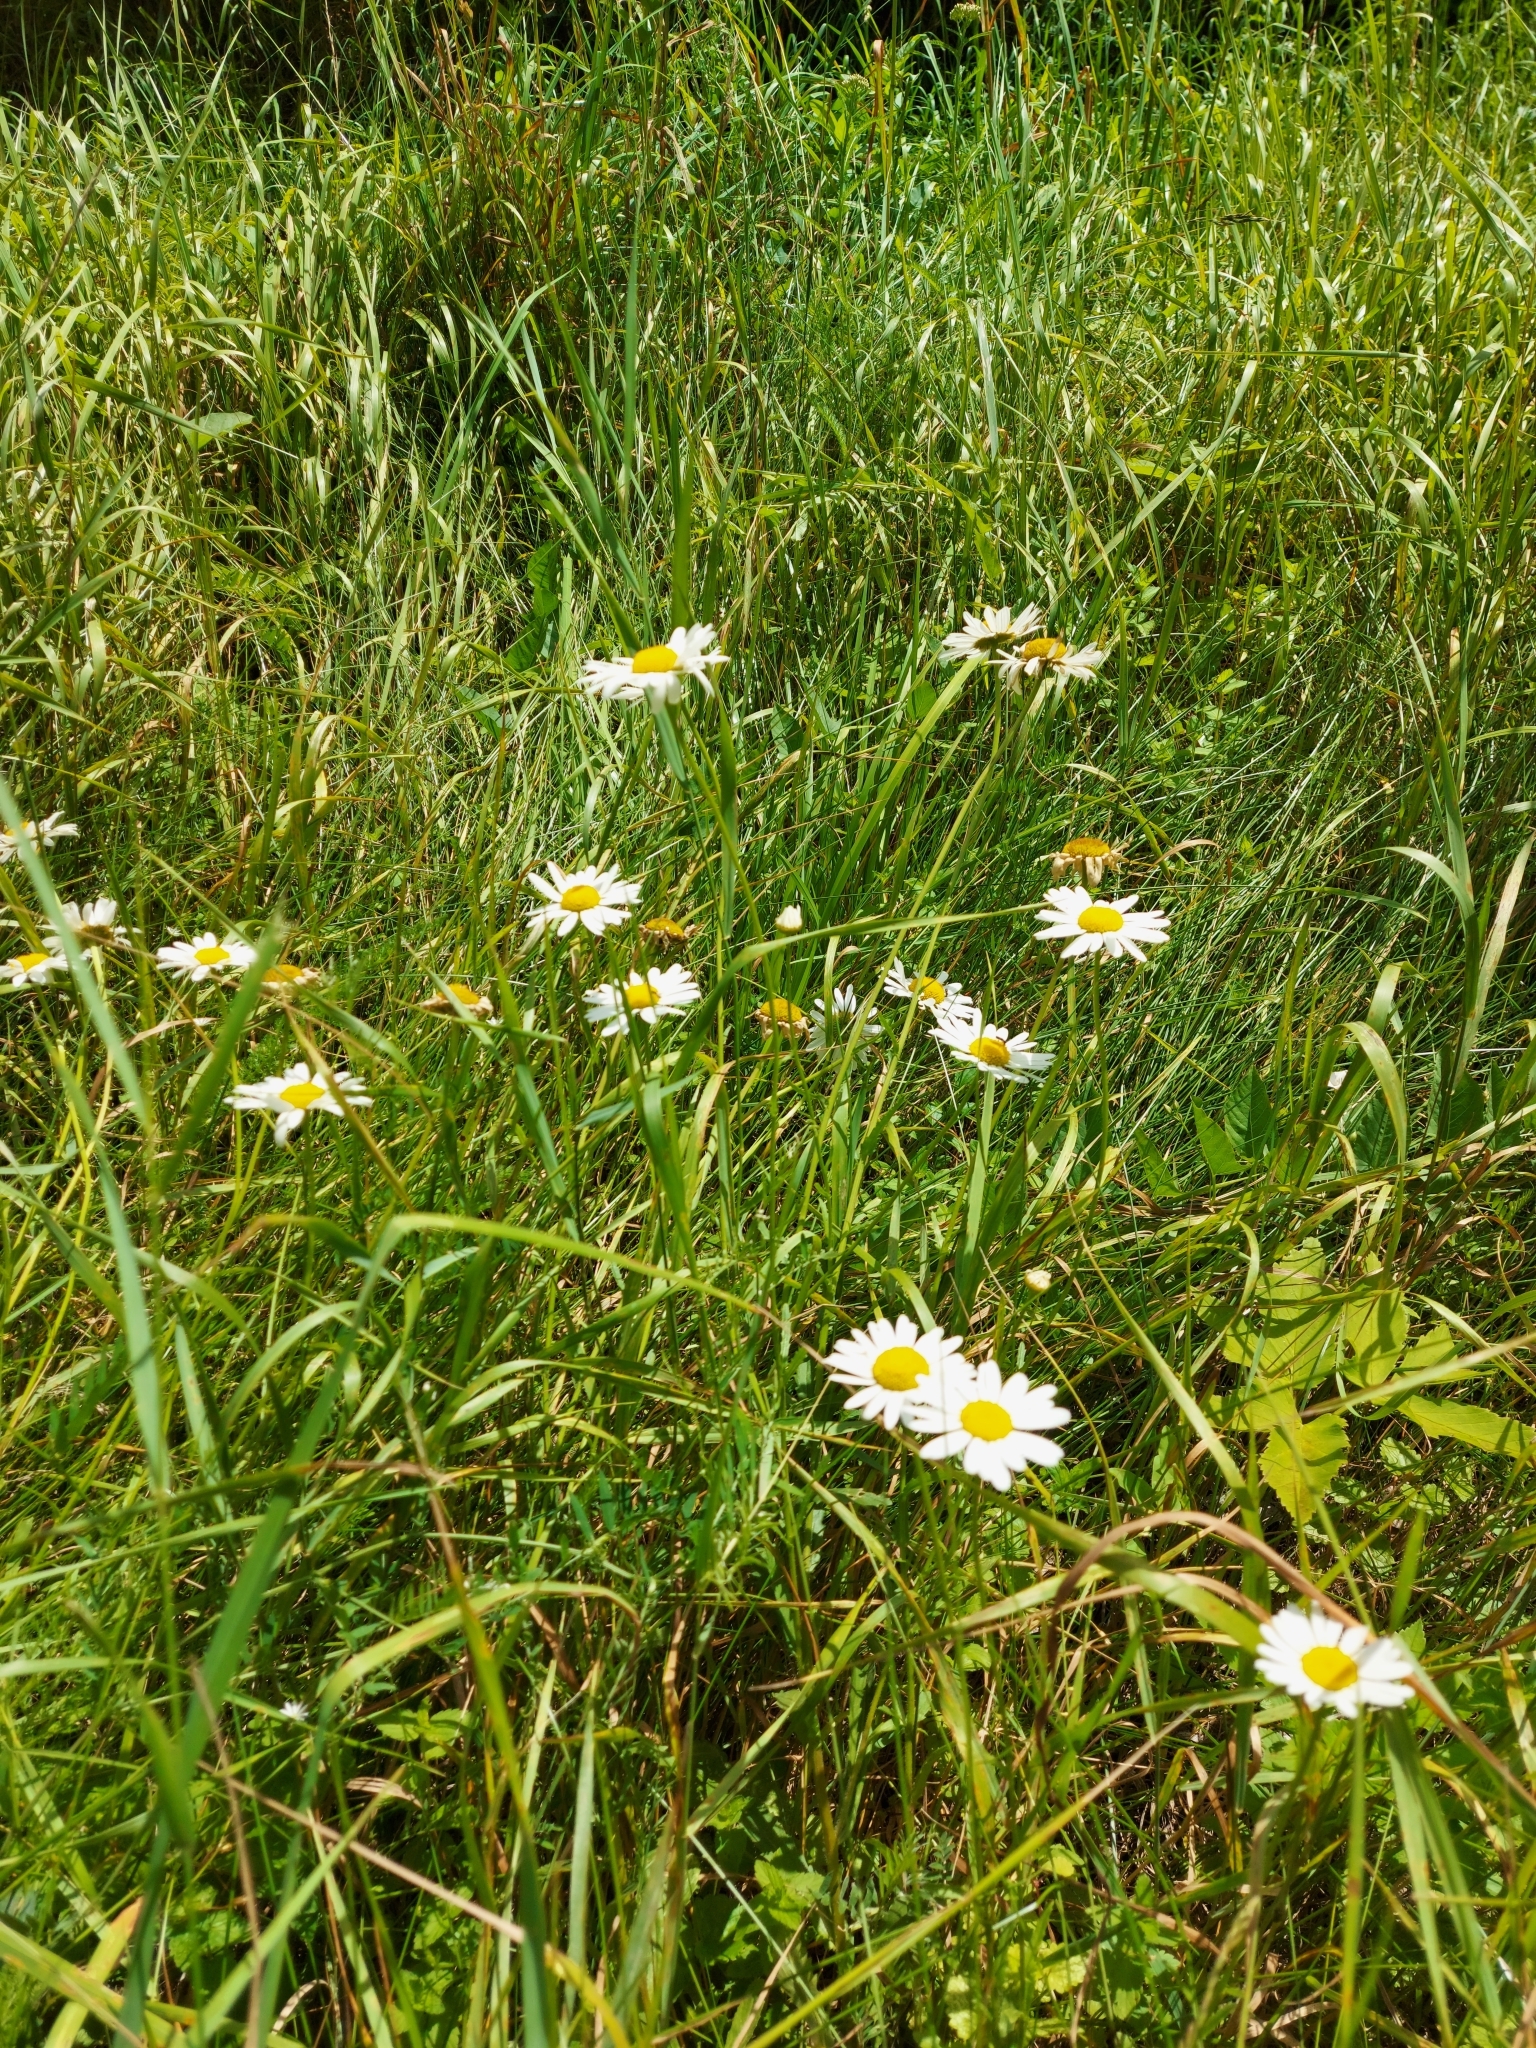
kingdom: Plantae
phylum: Tracheophyta
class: Magnoliopsida
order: Asterales
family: Asteraceae
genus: Tripleurospermum
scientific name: Tripleurospermum inodorum
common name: Scentless mayweed
